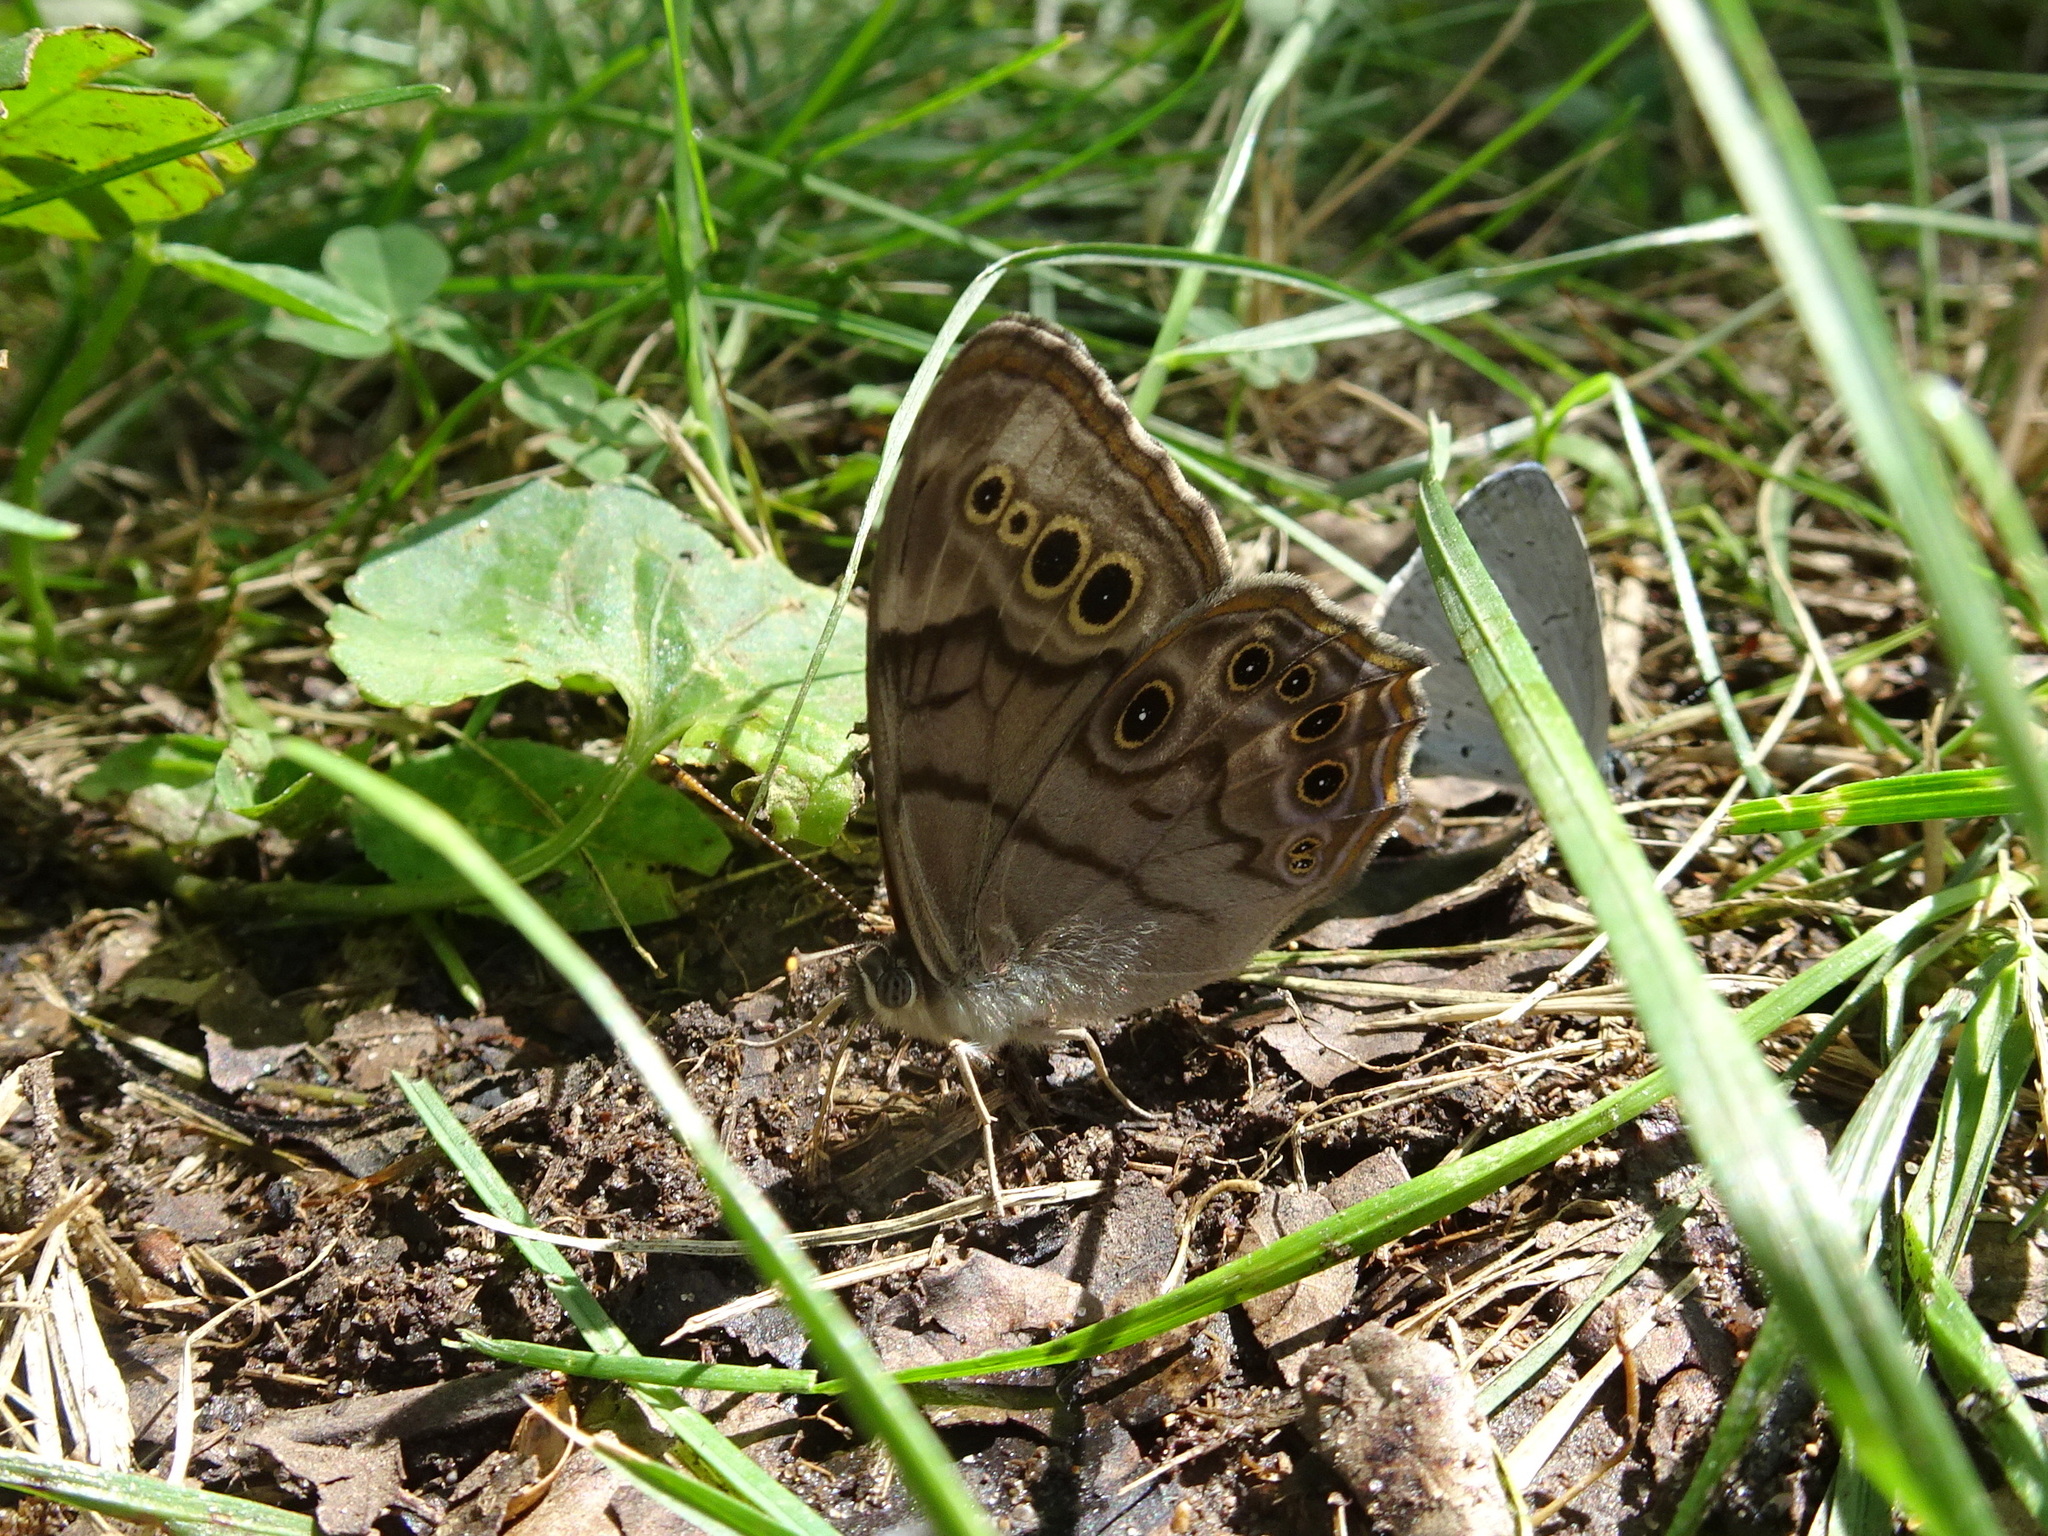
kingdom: Animalia
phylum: Arthropoda
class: Insecta
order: Lepidoptera
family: Nymphalidae
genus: Lethe
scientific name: Lethe anthedon
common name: Northern pearly-eye
